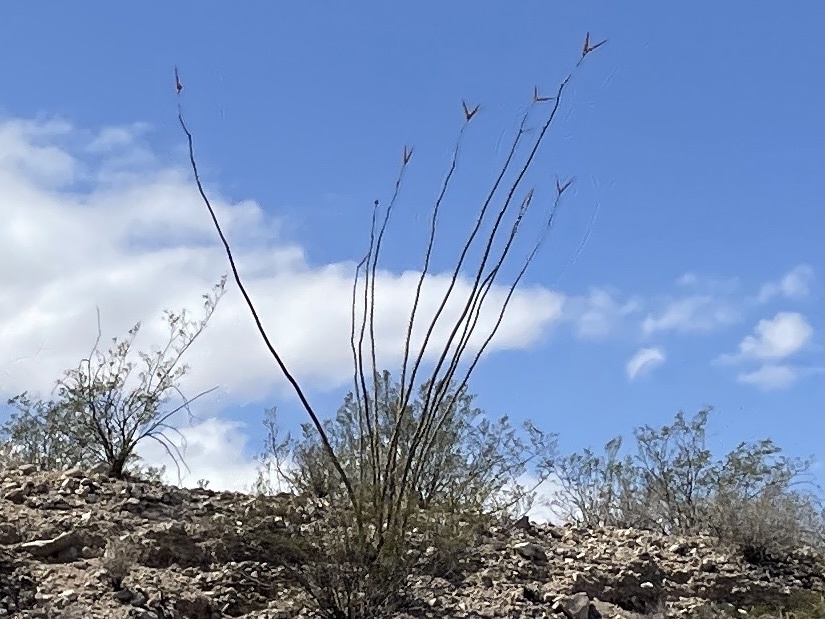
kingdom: Plantae
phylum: Tracheophyta
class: Magnoliopsida
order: Ericales
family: Fouquieriaceae
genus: Fouquieria
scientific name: Fouquieria splendens
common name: Vine-cactus
